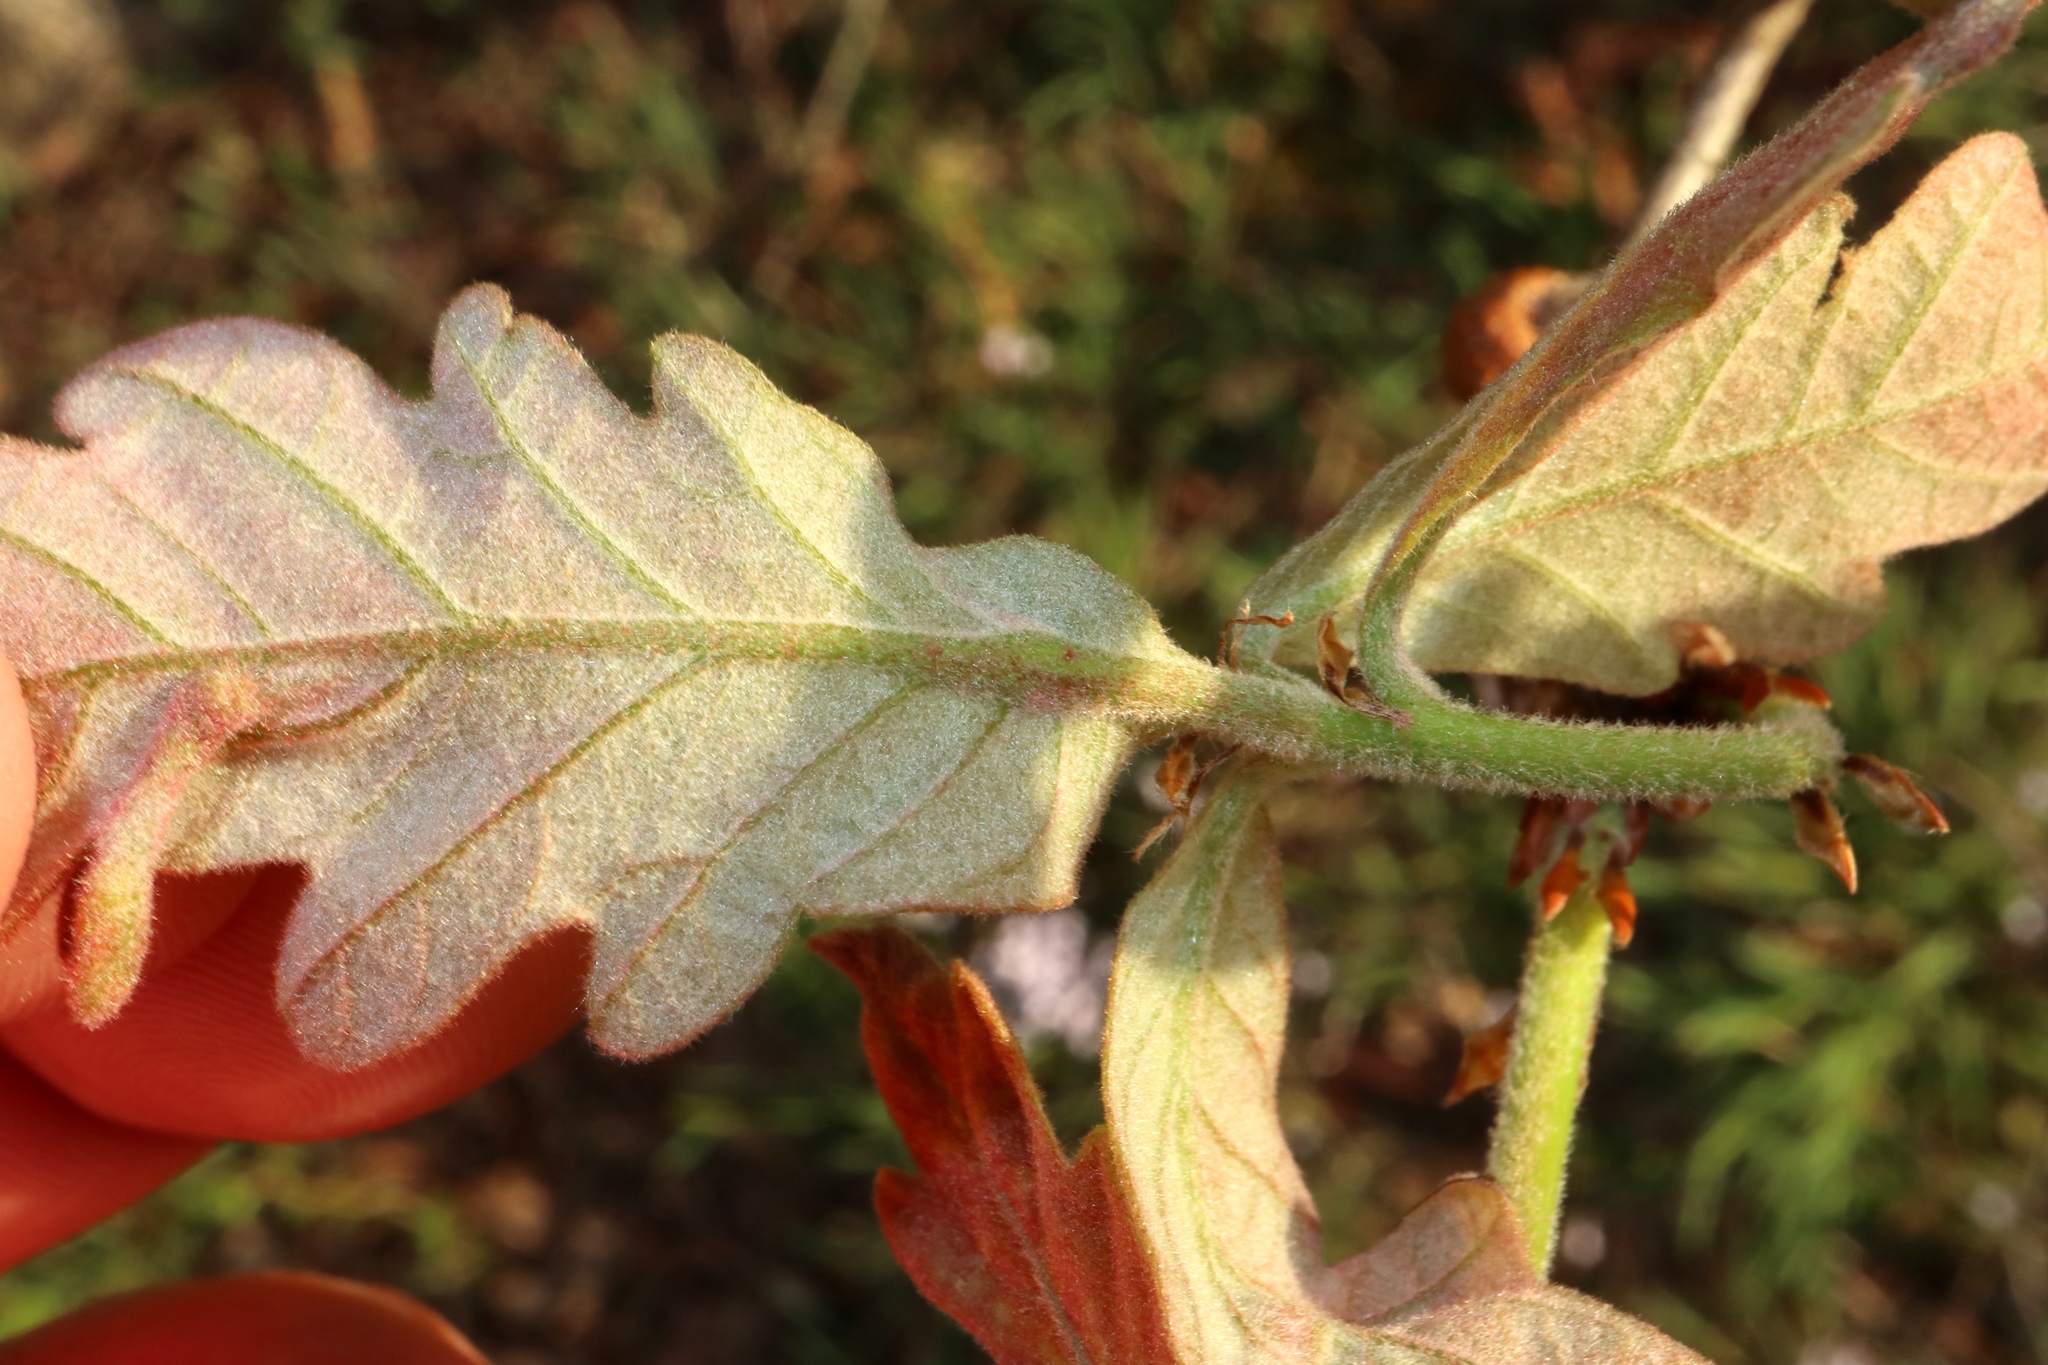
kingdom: Animalia
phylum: Arthropoda
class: Insecta
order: Hymenoptera
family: Cynipidae
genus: Andricus
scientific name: Andricus
